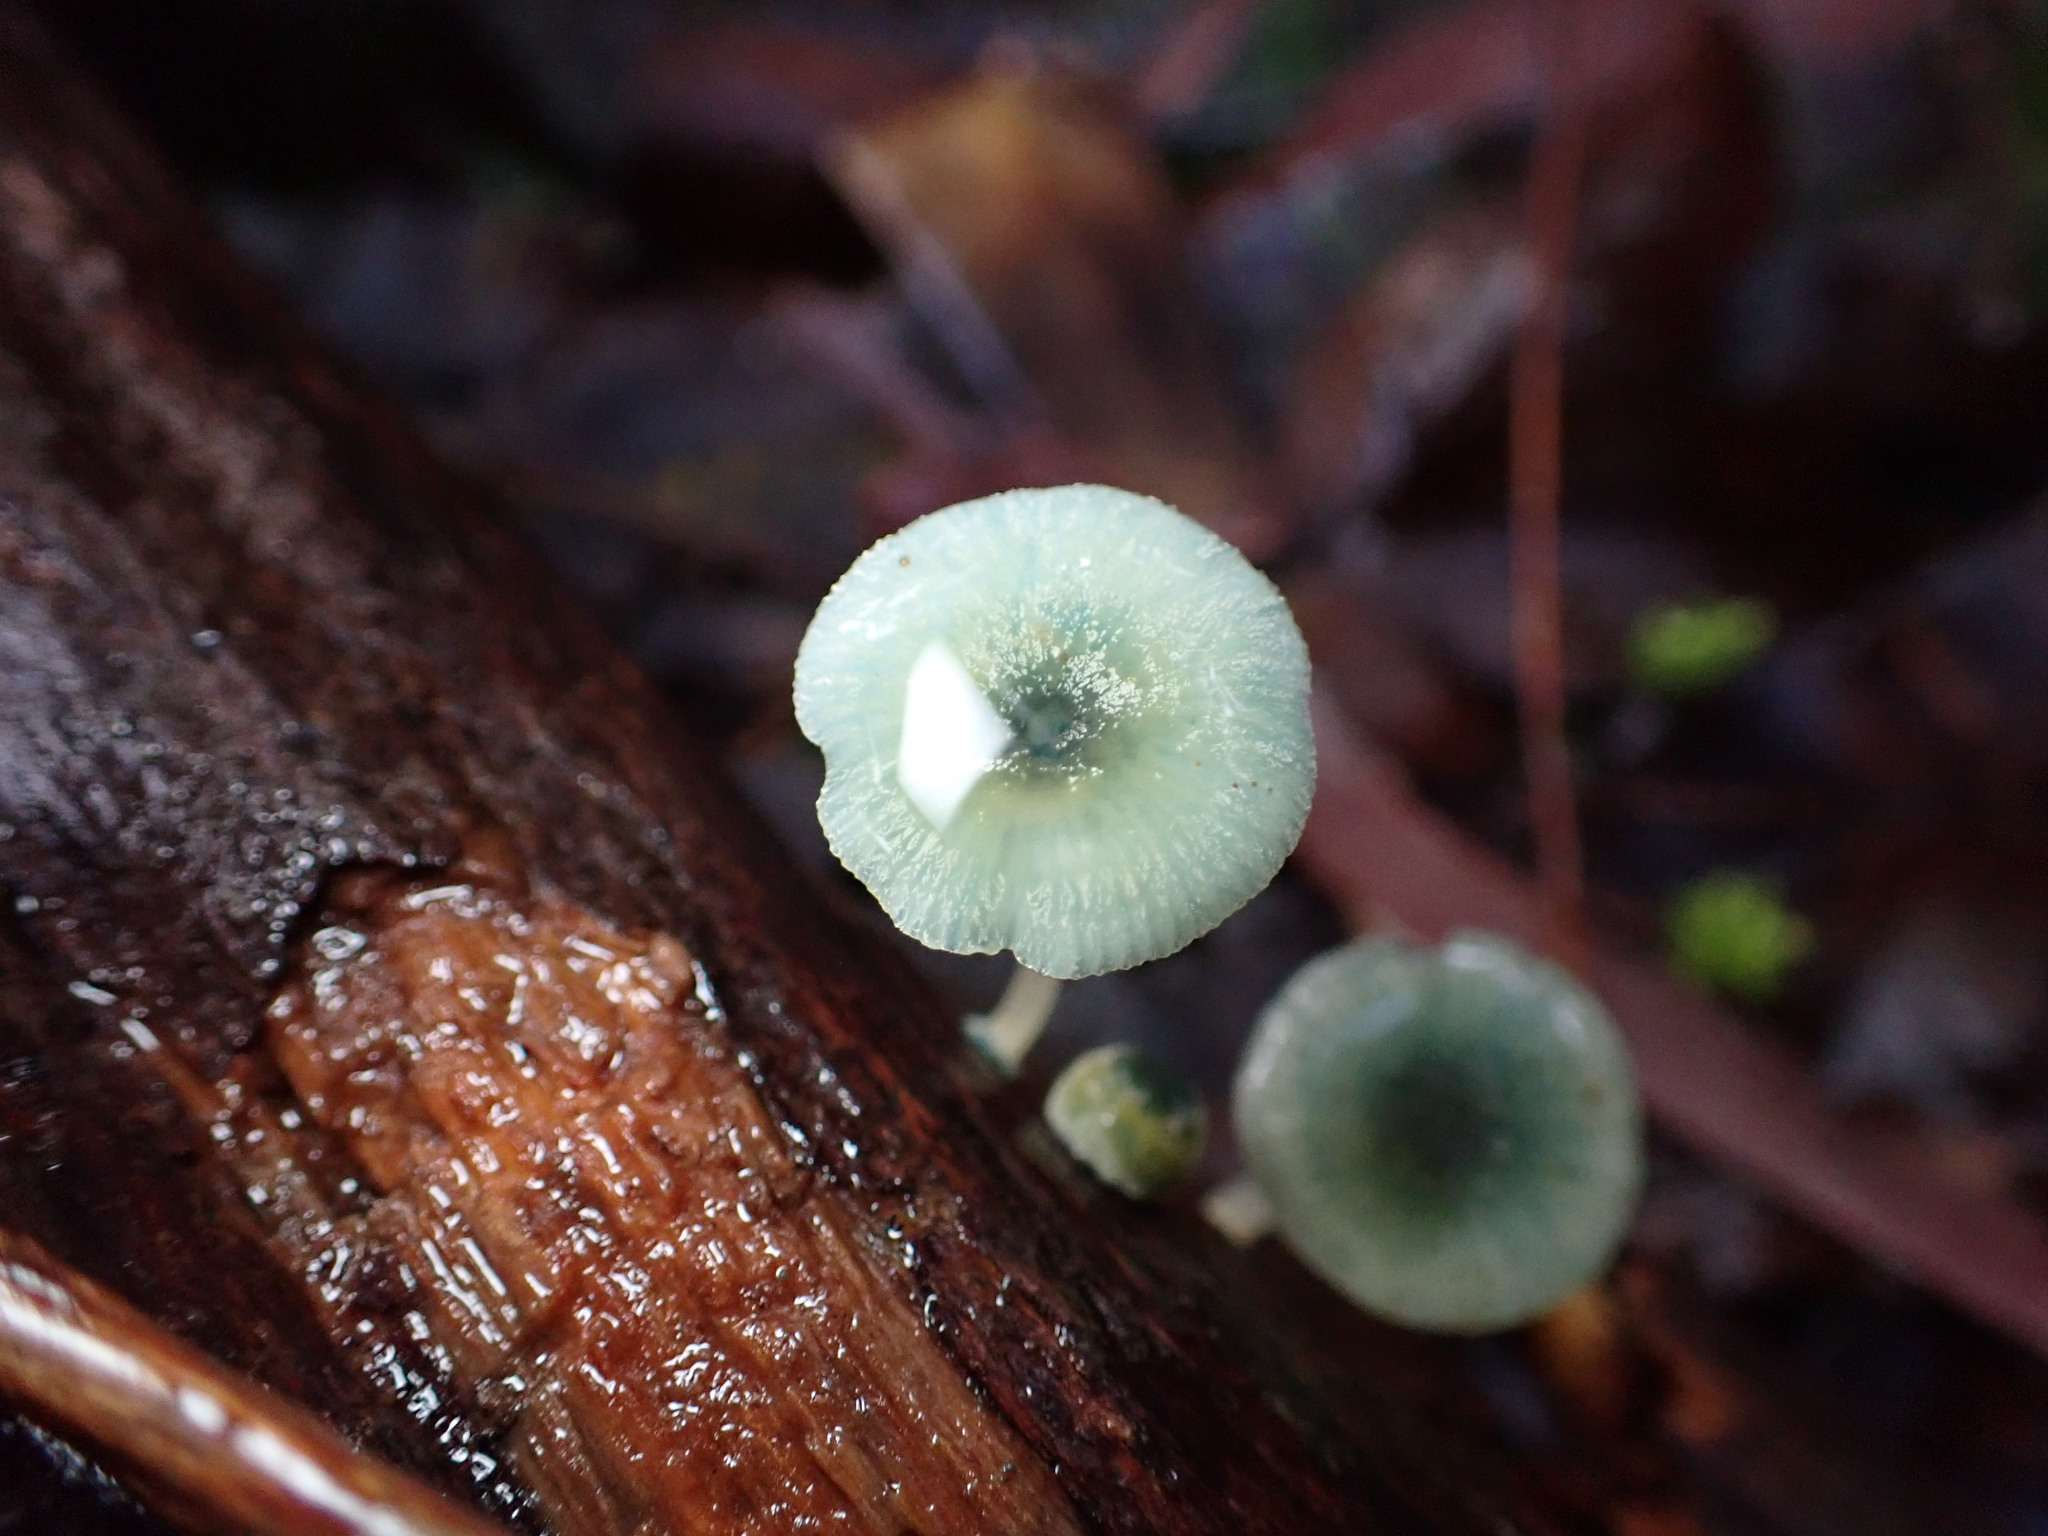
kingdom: Fungi
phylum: Basidiomycota
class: Agaricomycetes
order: Agaricales
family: Mycenaceae
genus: Mycena
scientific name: Mycena interrupta
